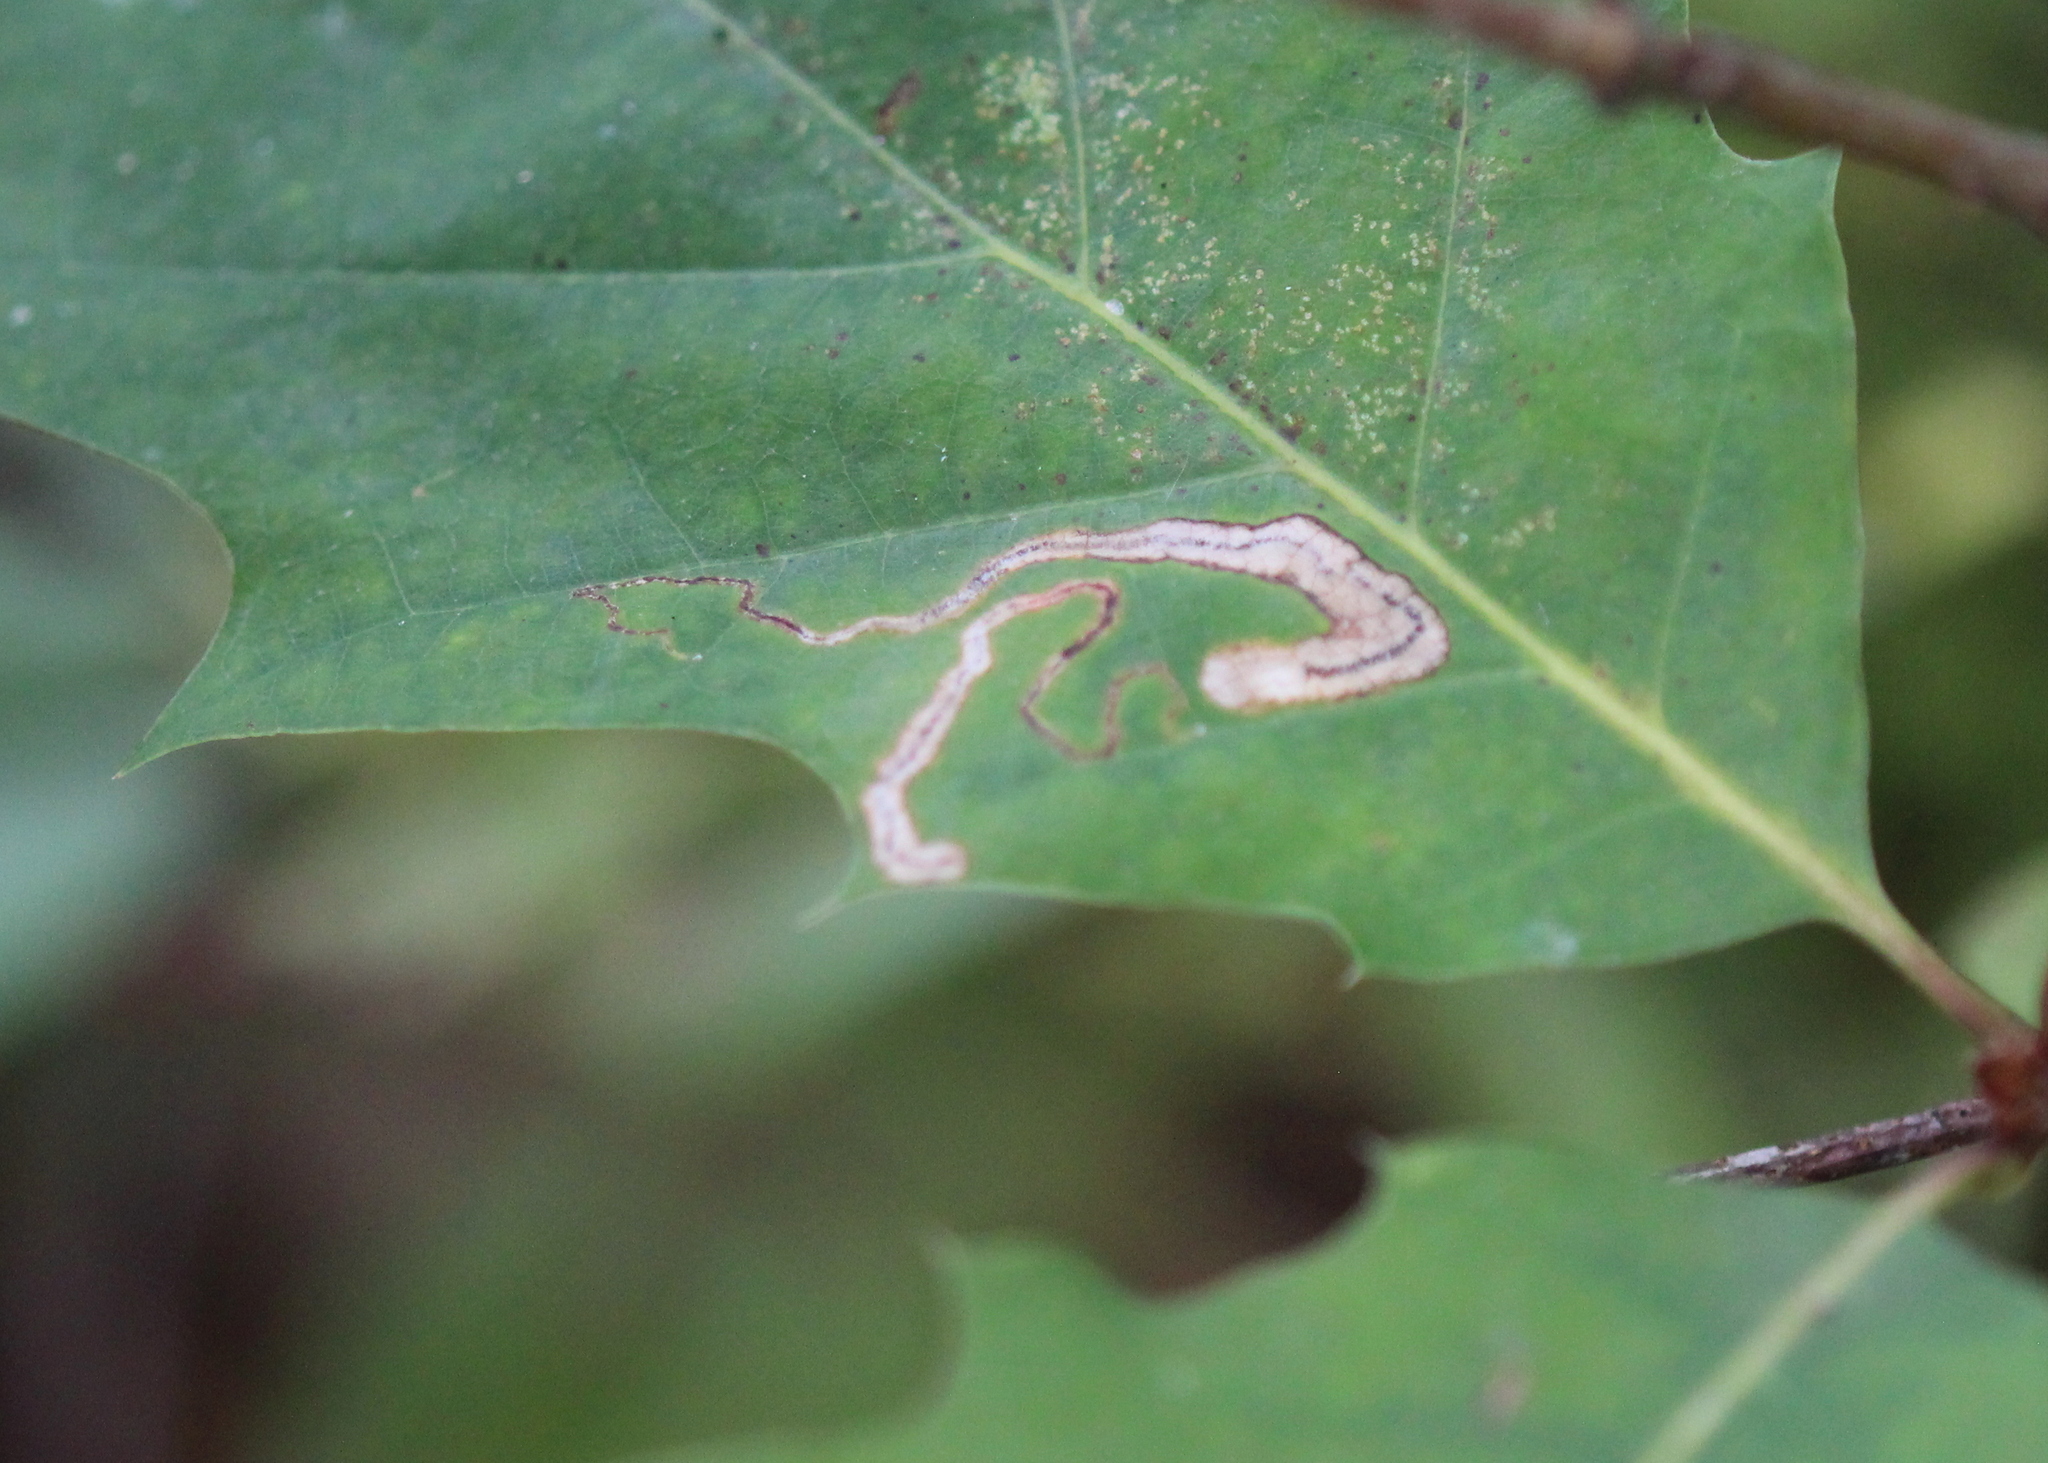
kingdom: Animalia
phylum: Arthropoda
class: Insecta
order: Lepidoptera
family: Nepticulidae
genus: Stigmella
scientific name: Stigmella quercipulchella
